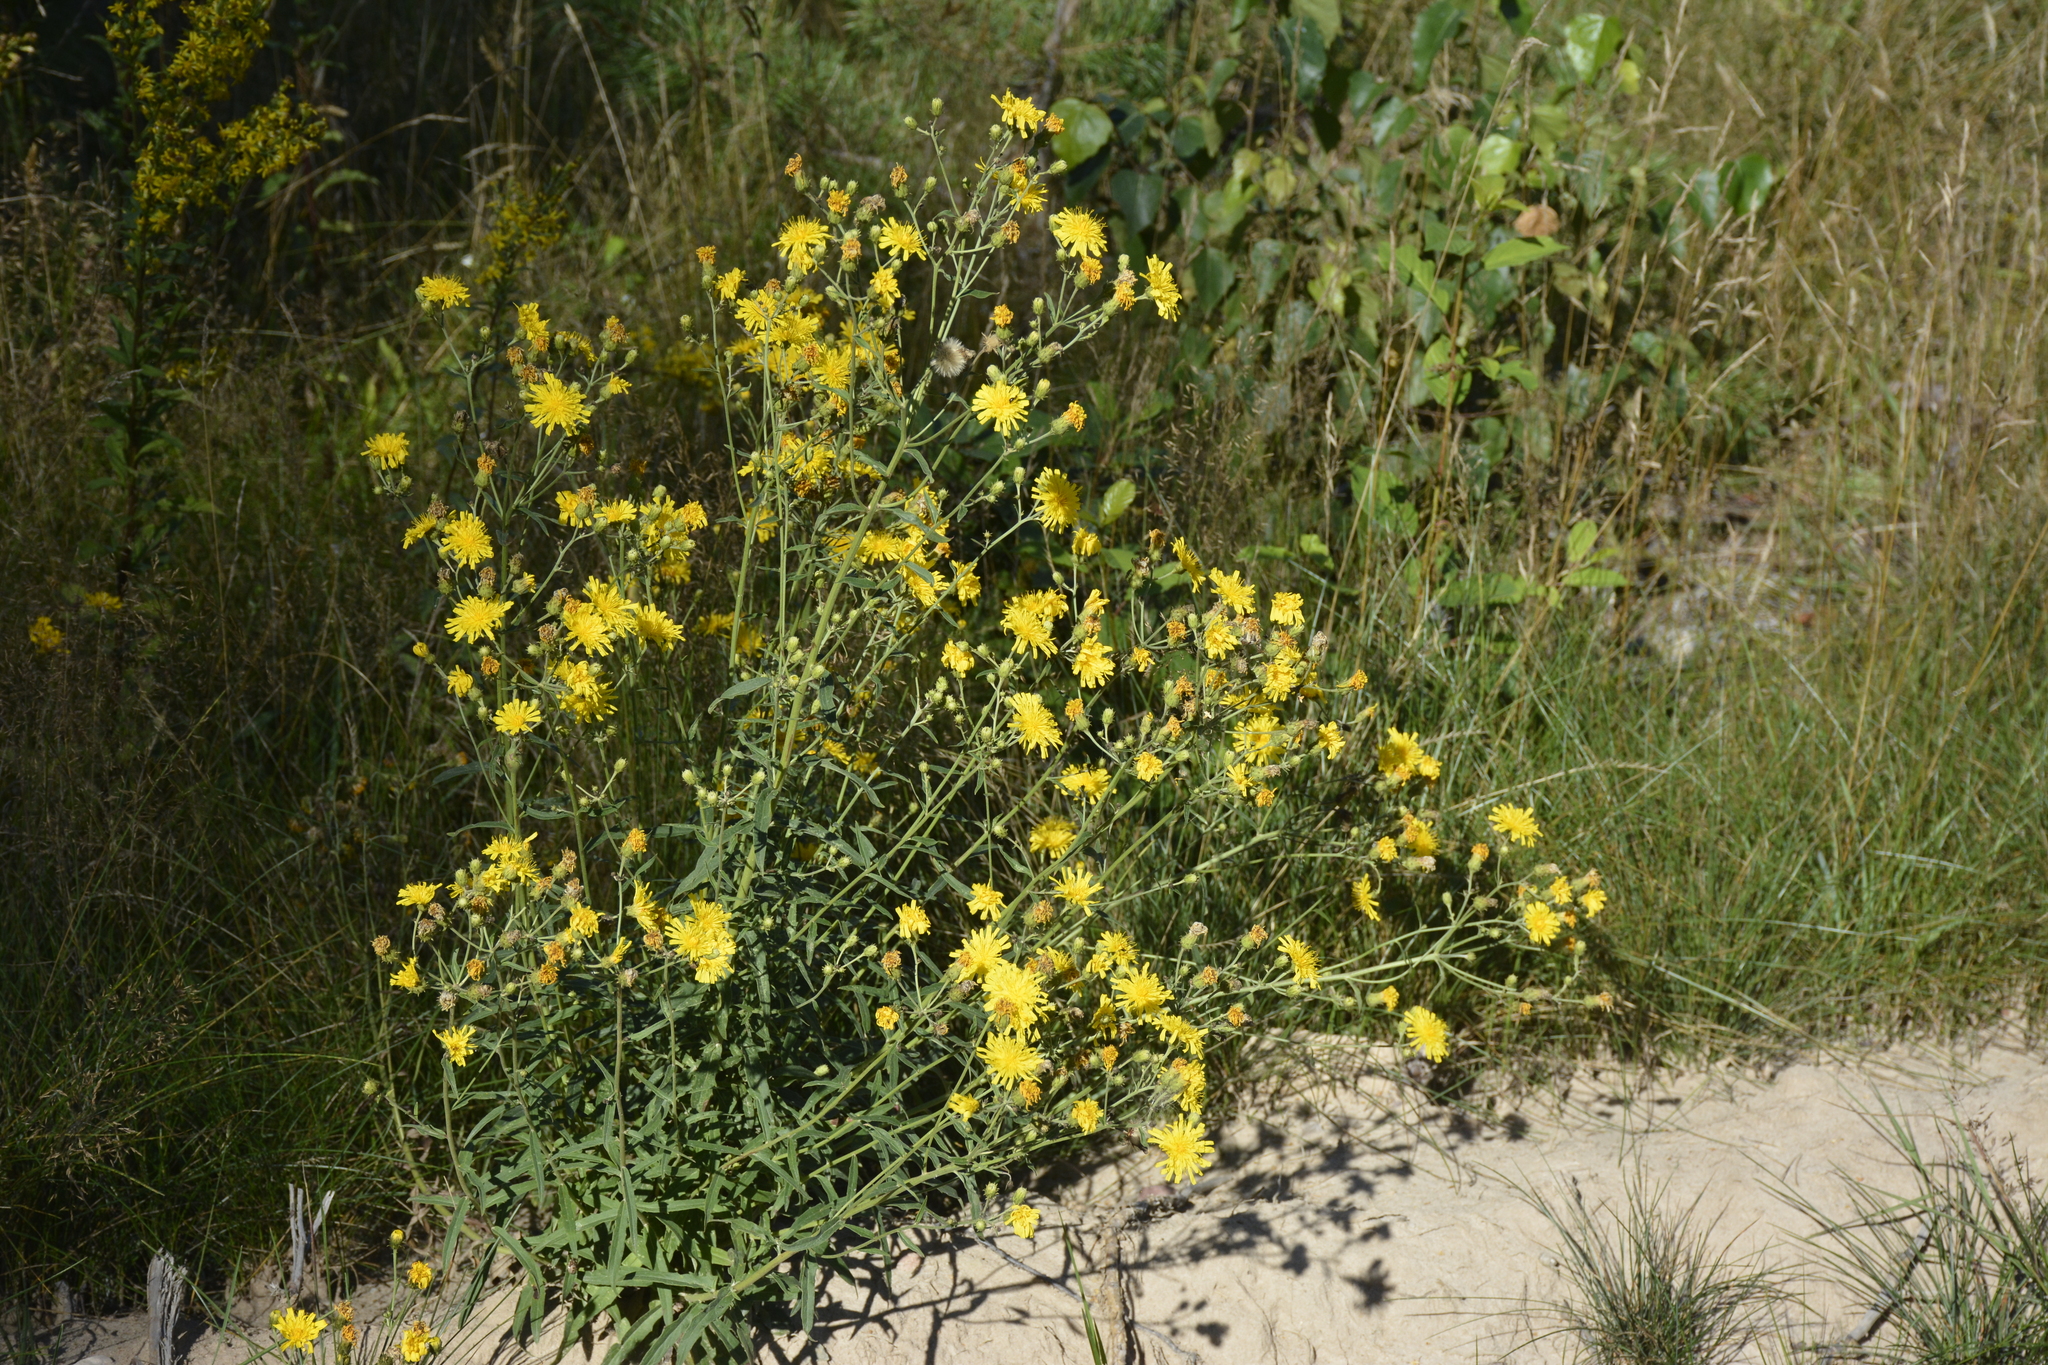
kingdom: Plantae
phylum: Tracheophyta
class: Magnoliopsida
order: Asterales
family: Asteraceae
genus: Hieracium
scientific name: Hieracium umbellatum
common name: Northern hawkweed
